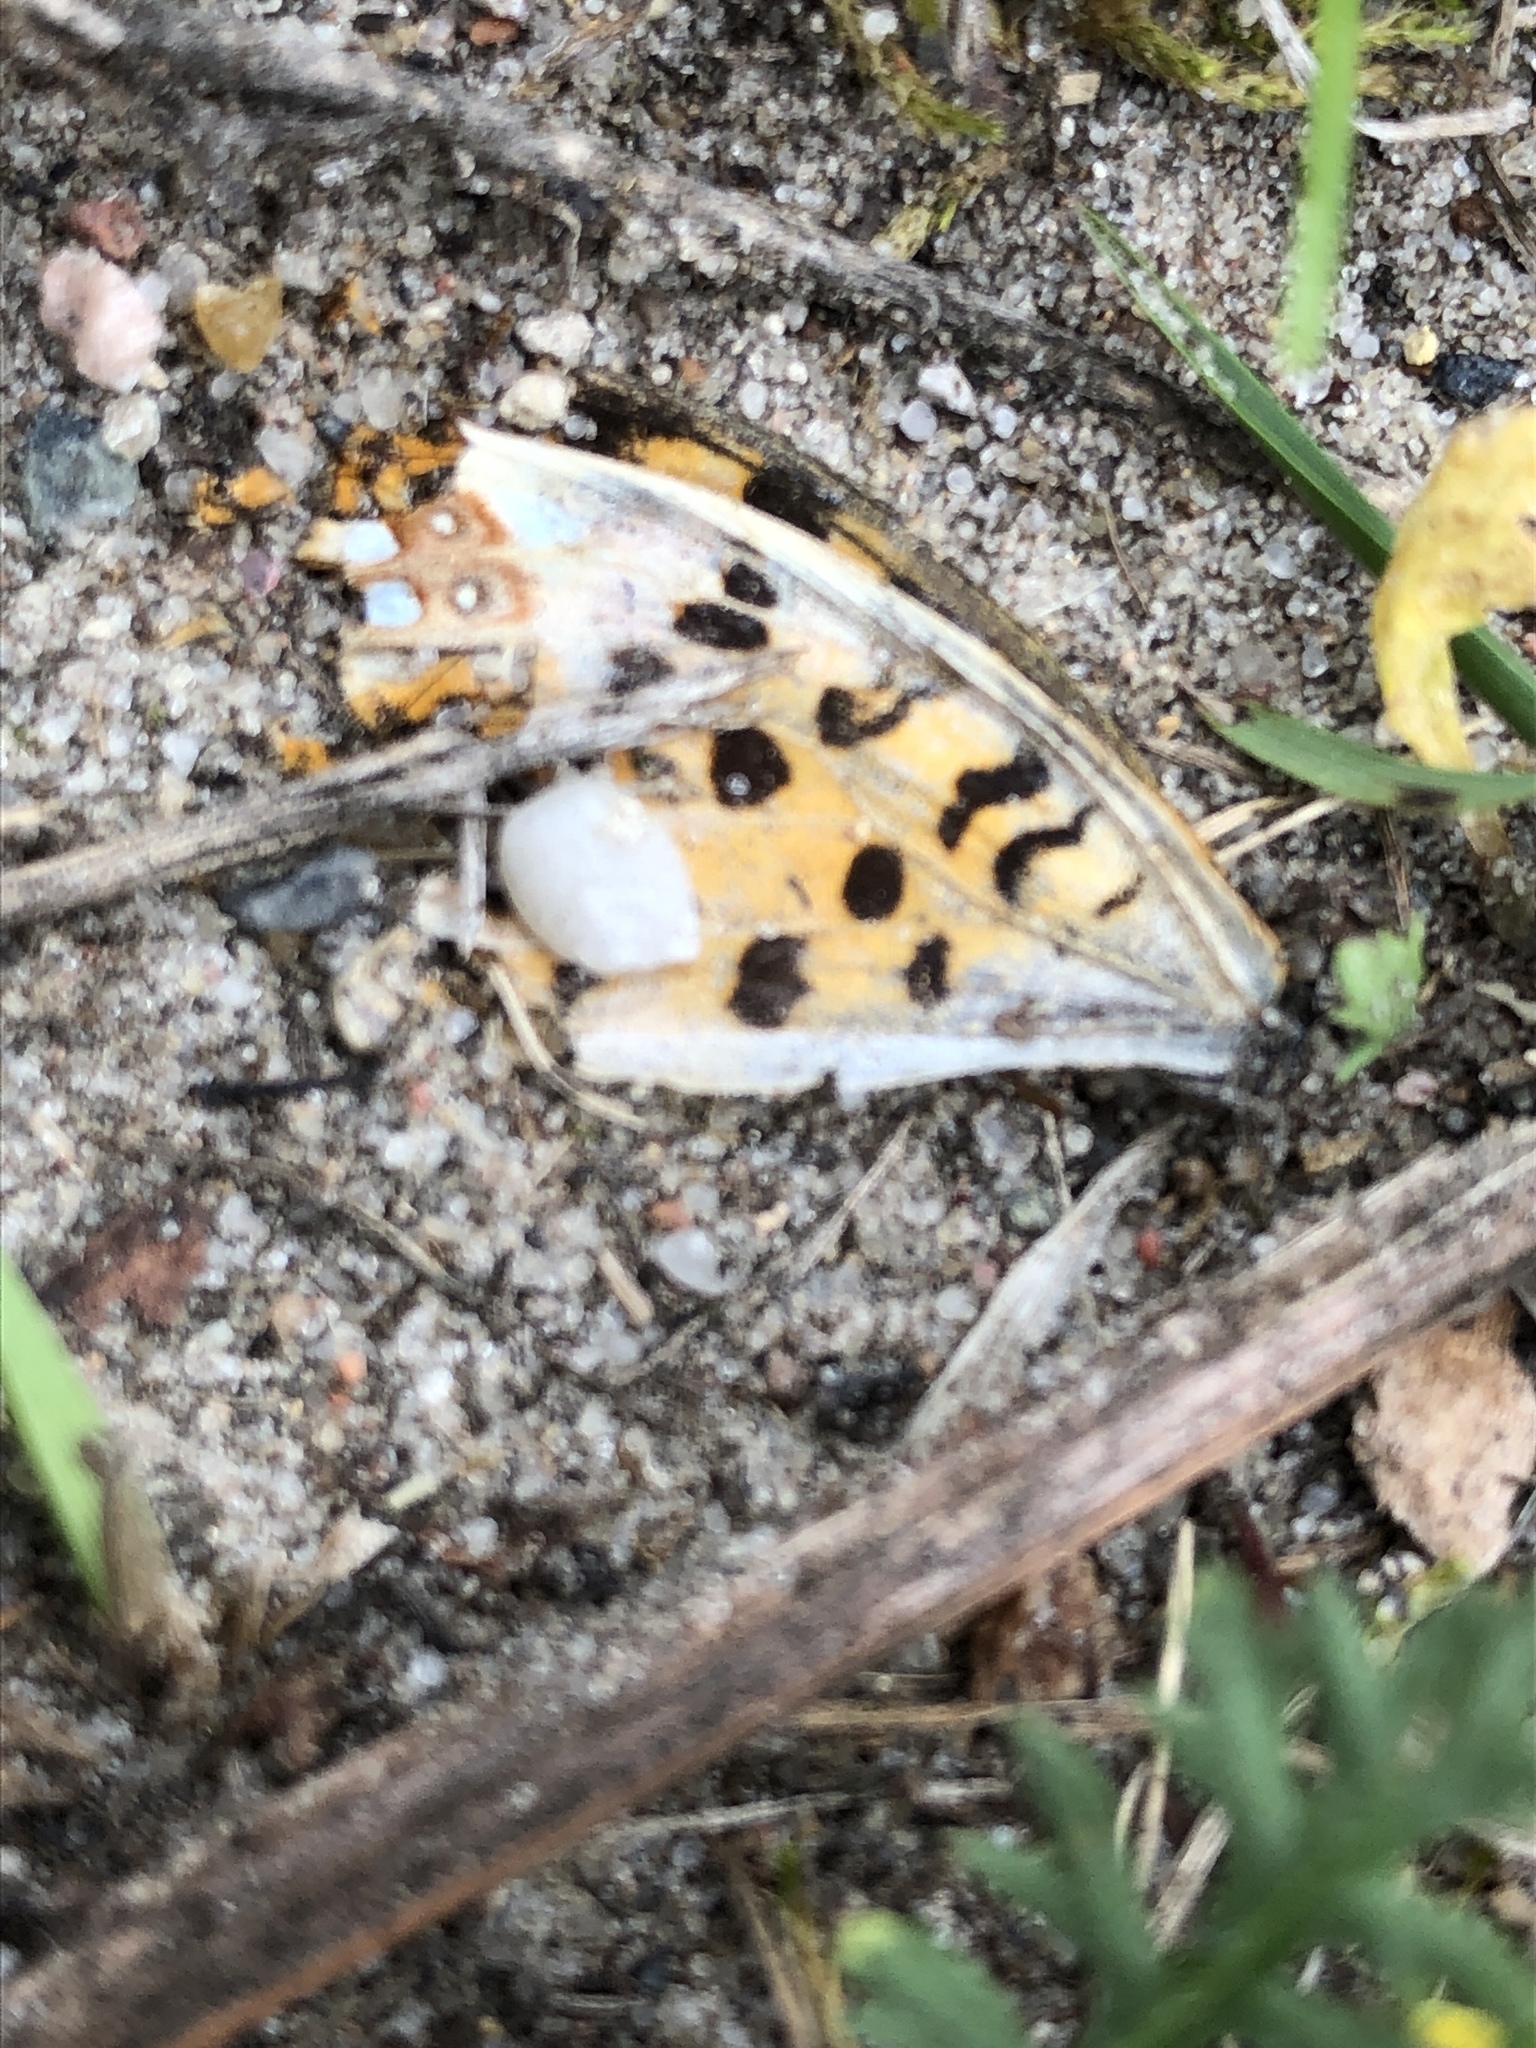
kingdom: Animalia
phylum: Arthropoda
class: Insecta
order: Lepidoptera
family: Nymphalidae
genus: Issoria
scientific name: Issoria lathonia
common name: Queen of spain fritillary
